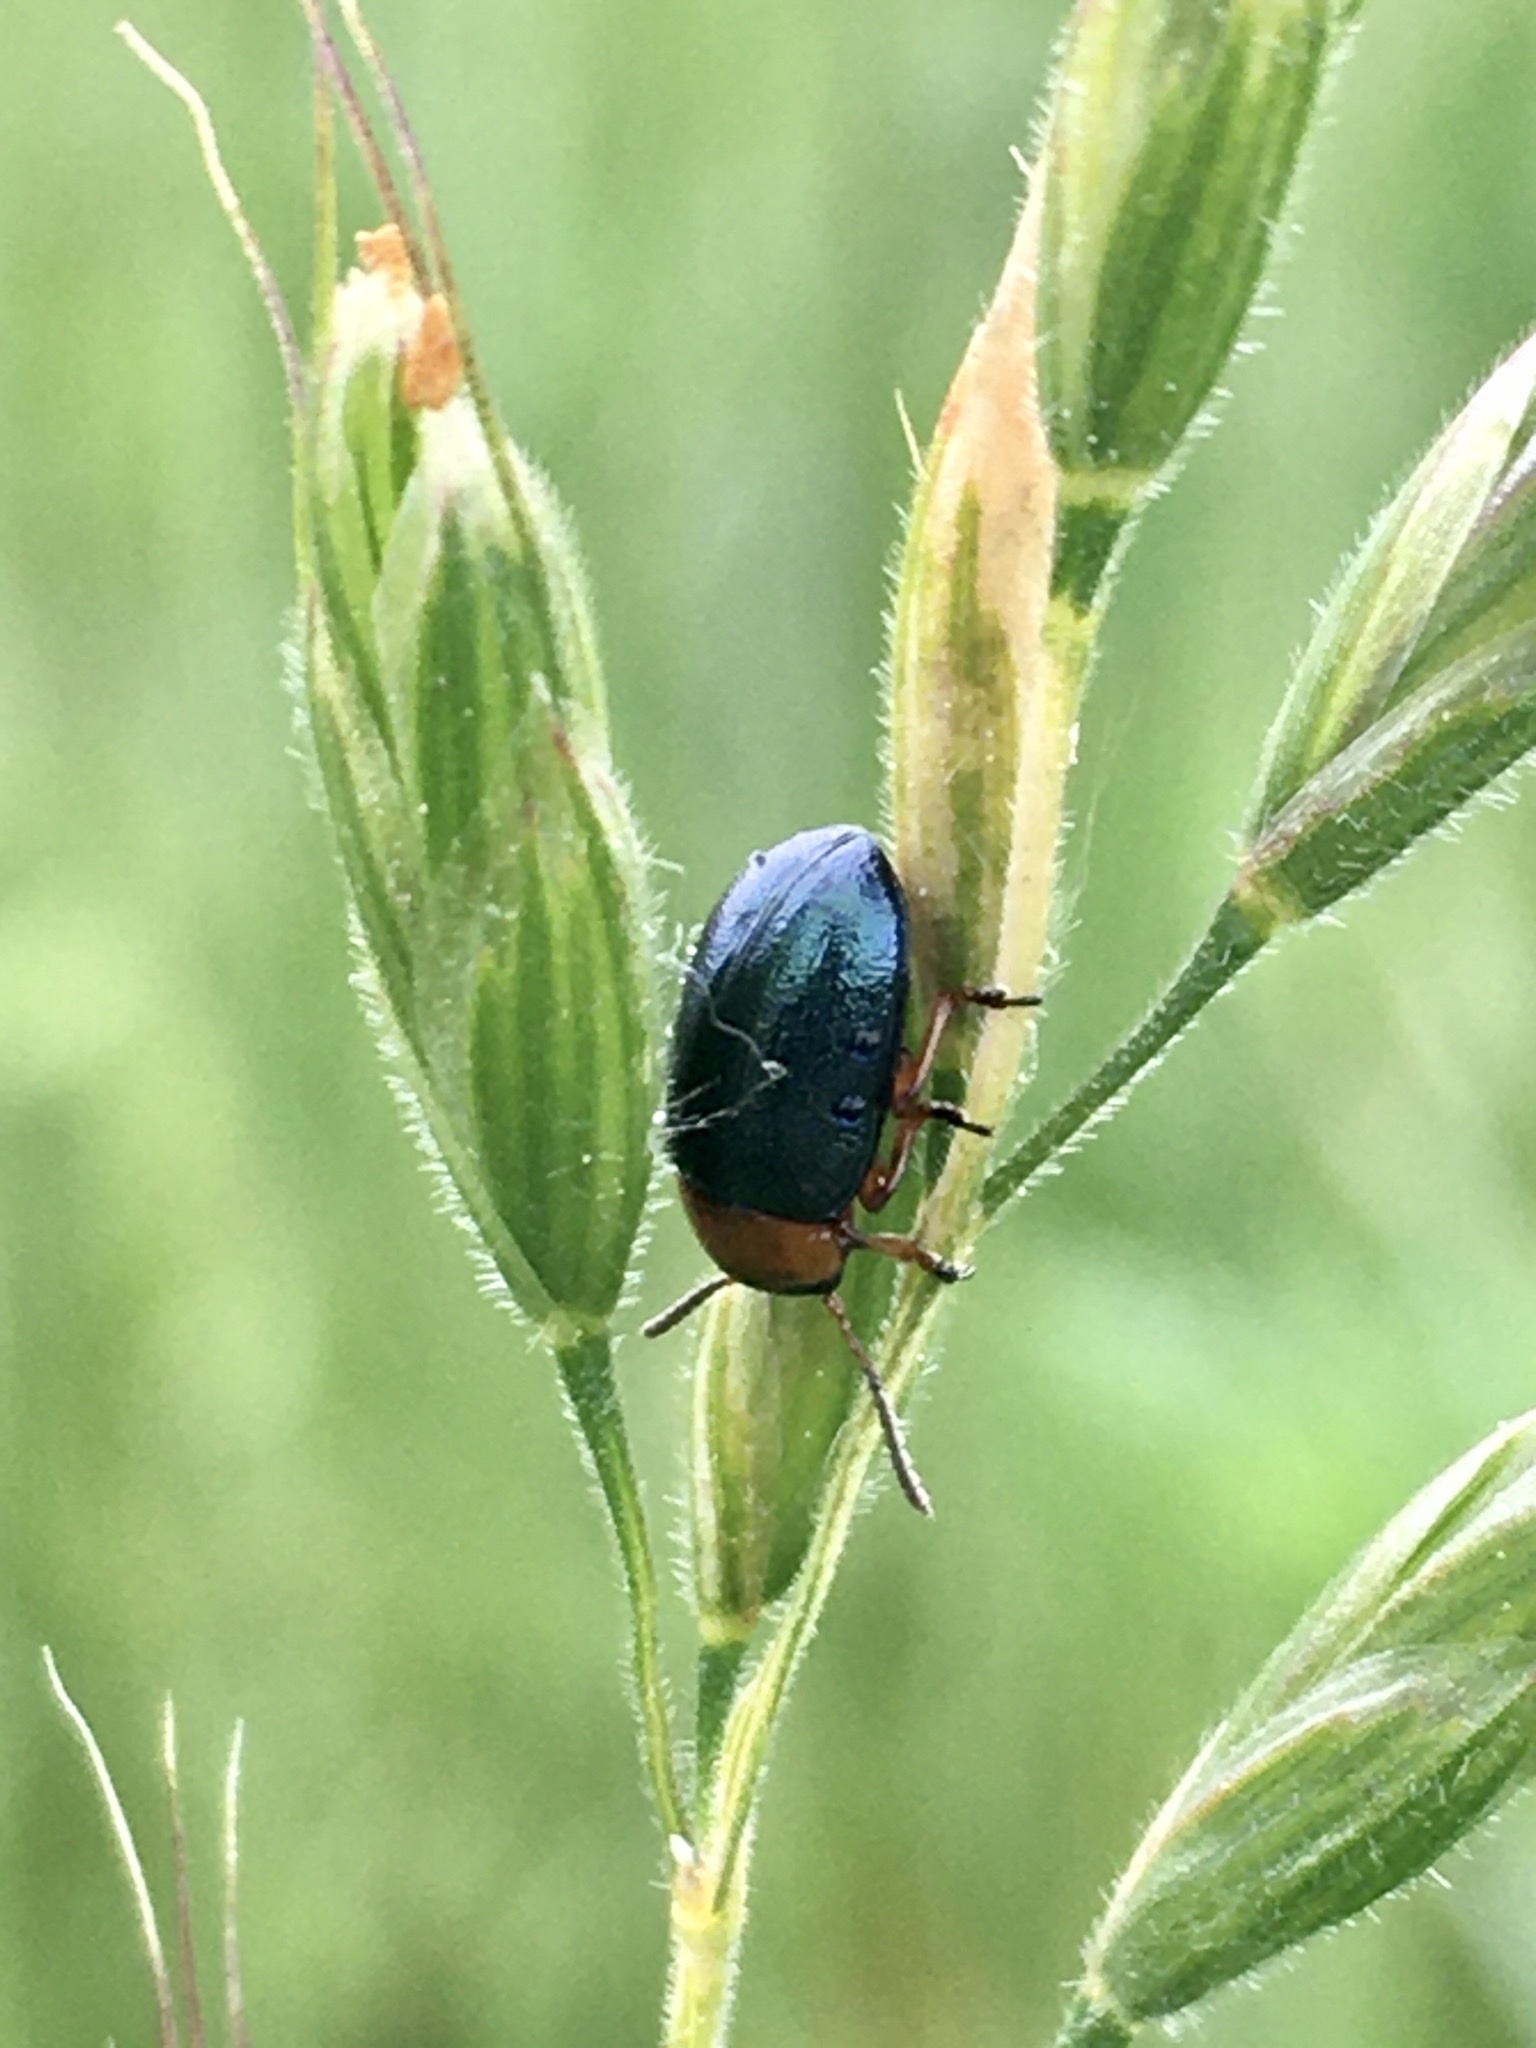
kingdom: Animalia
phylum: Arthropoda
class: Insecta
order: Coleoptera
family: Chrysomelidae
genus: Gastrophysa
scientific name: Gastrophysa polygoni
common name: Knotweed leaf beetle
